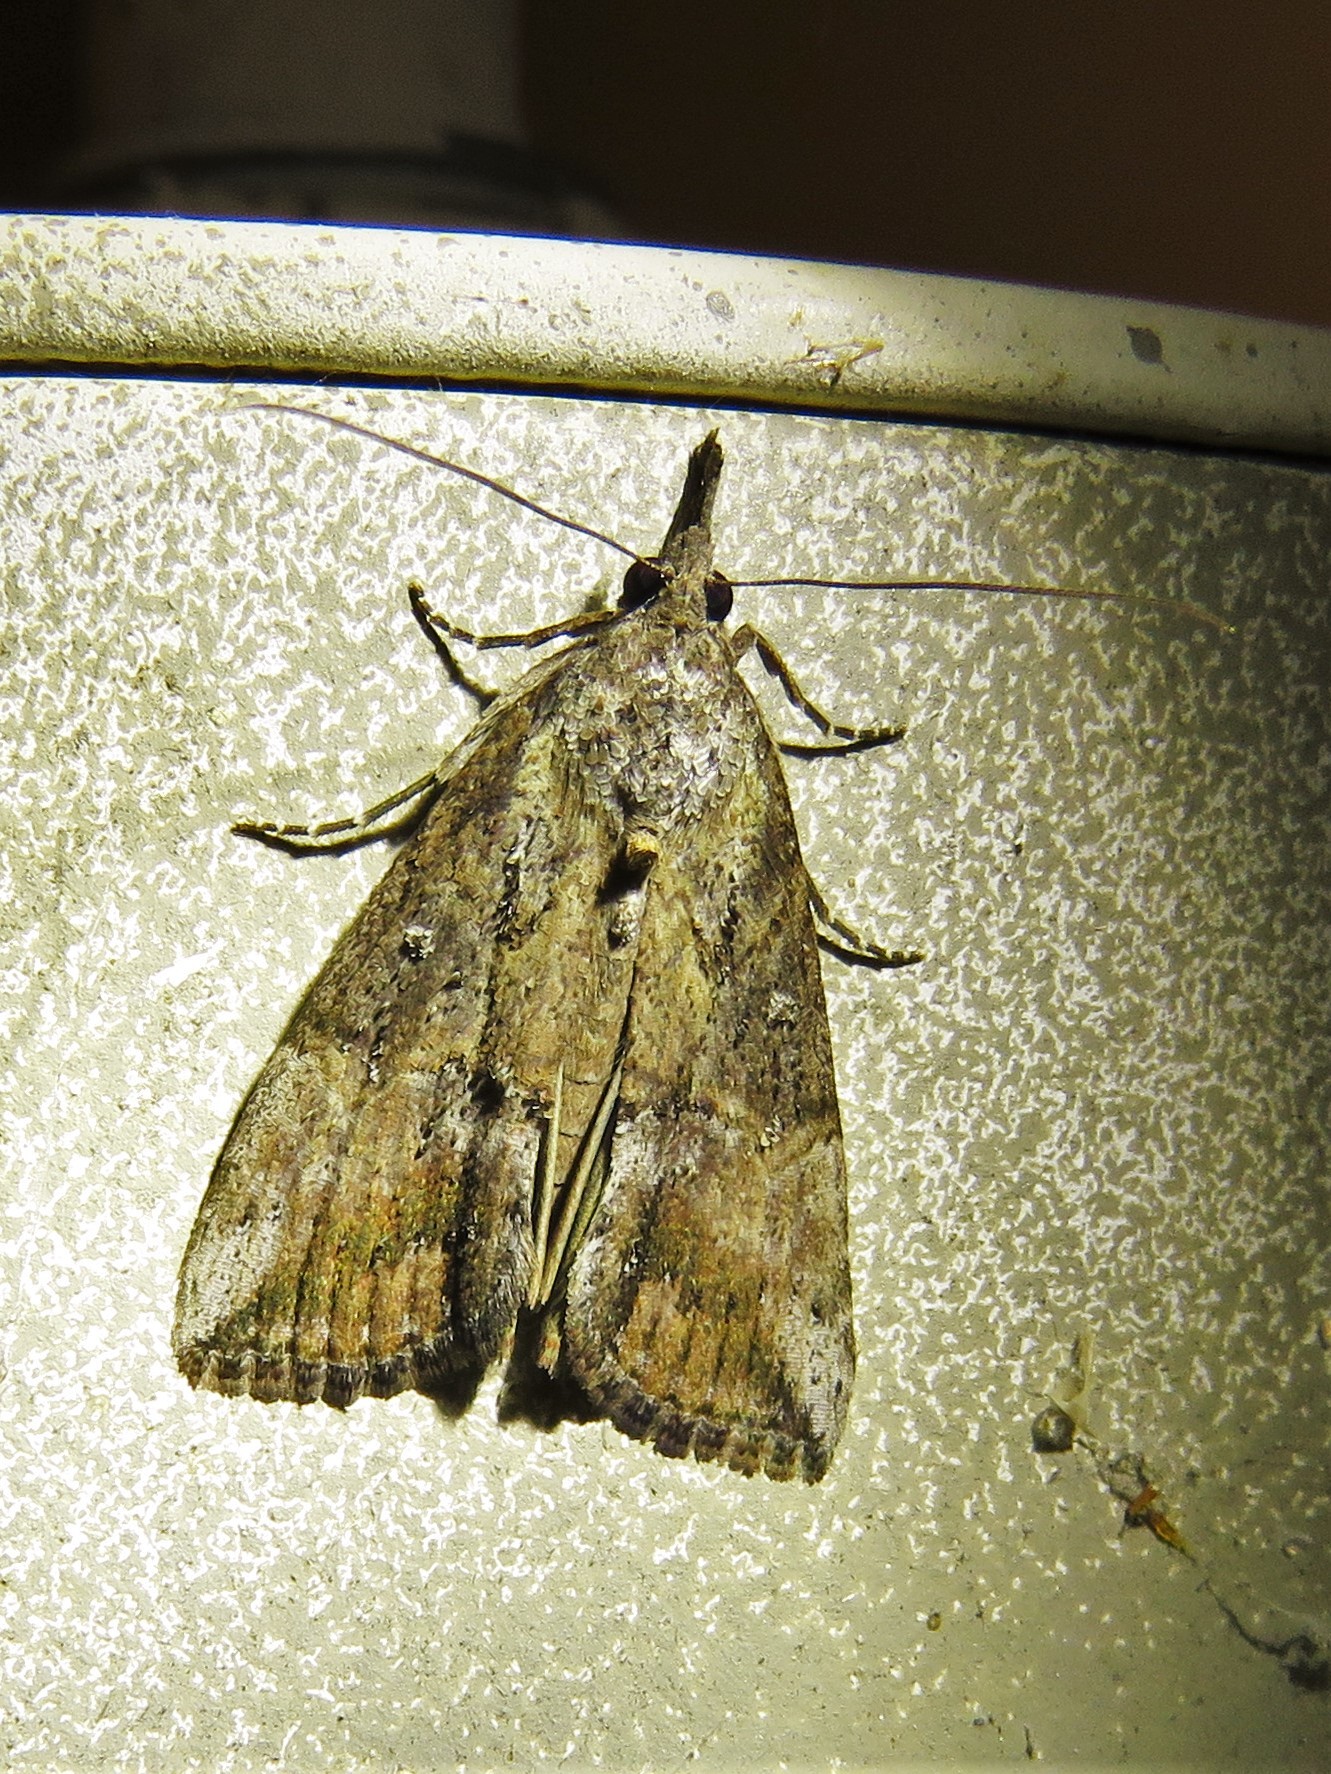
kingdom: Animalia
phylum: Arthropoda
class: Insecta
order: Lepidoptera
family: Erebidae
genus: Hypena
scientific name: Hypena scabra
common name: Green cloverworm
